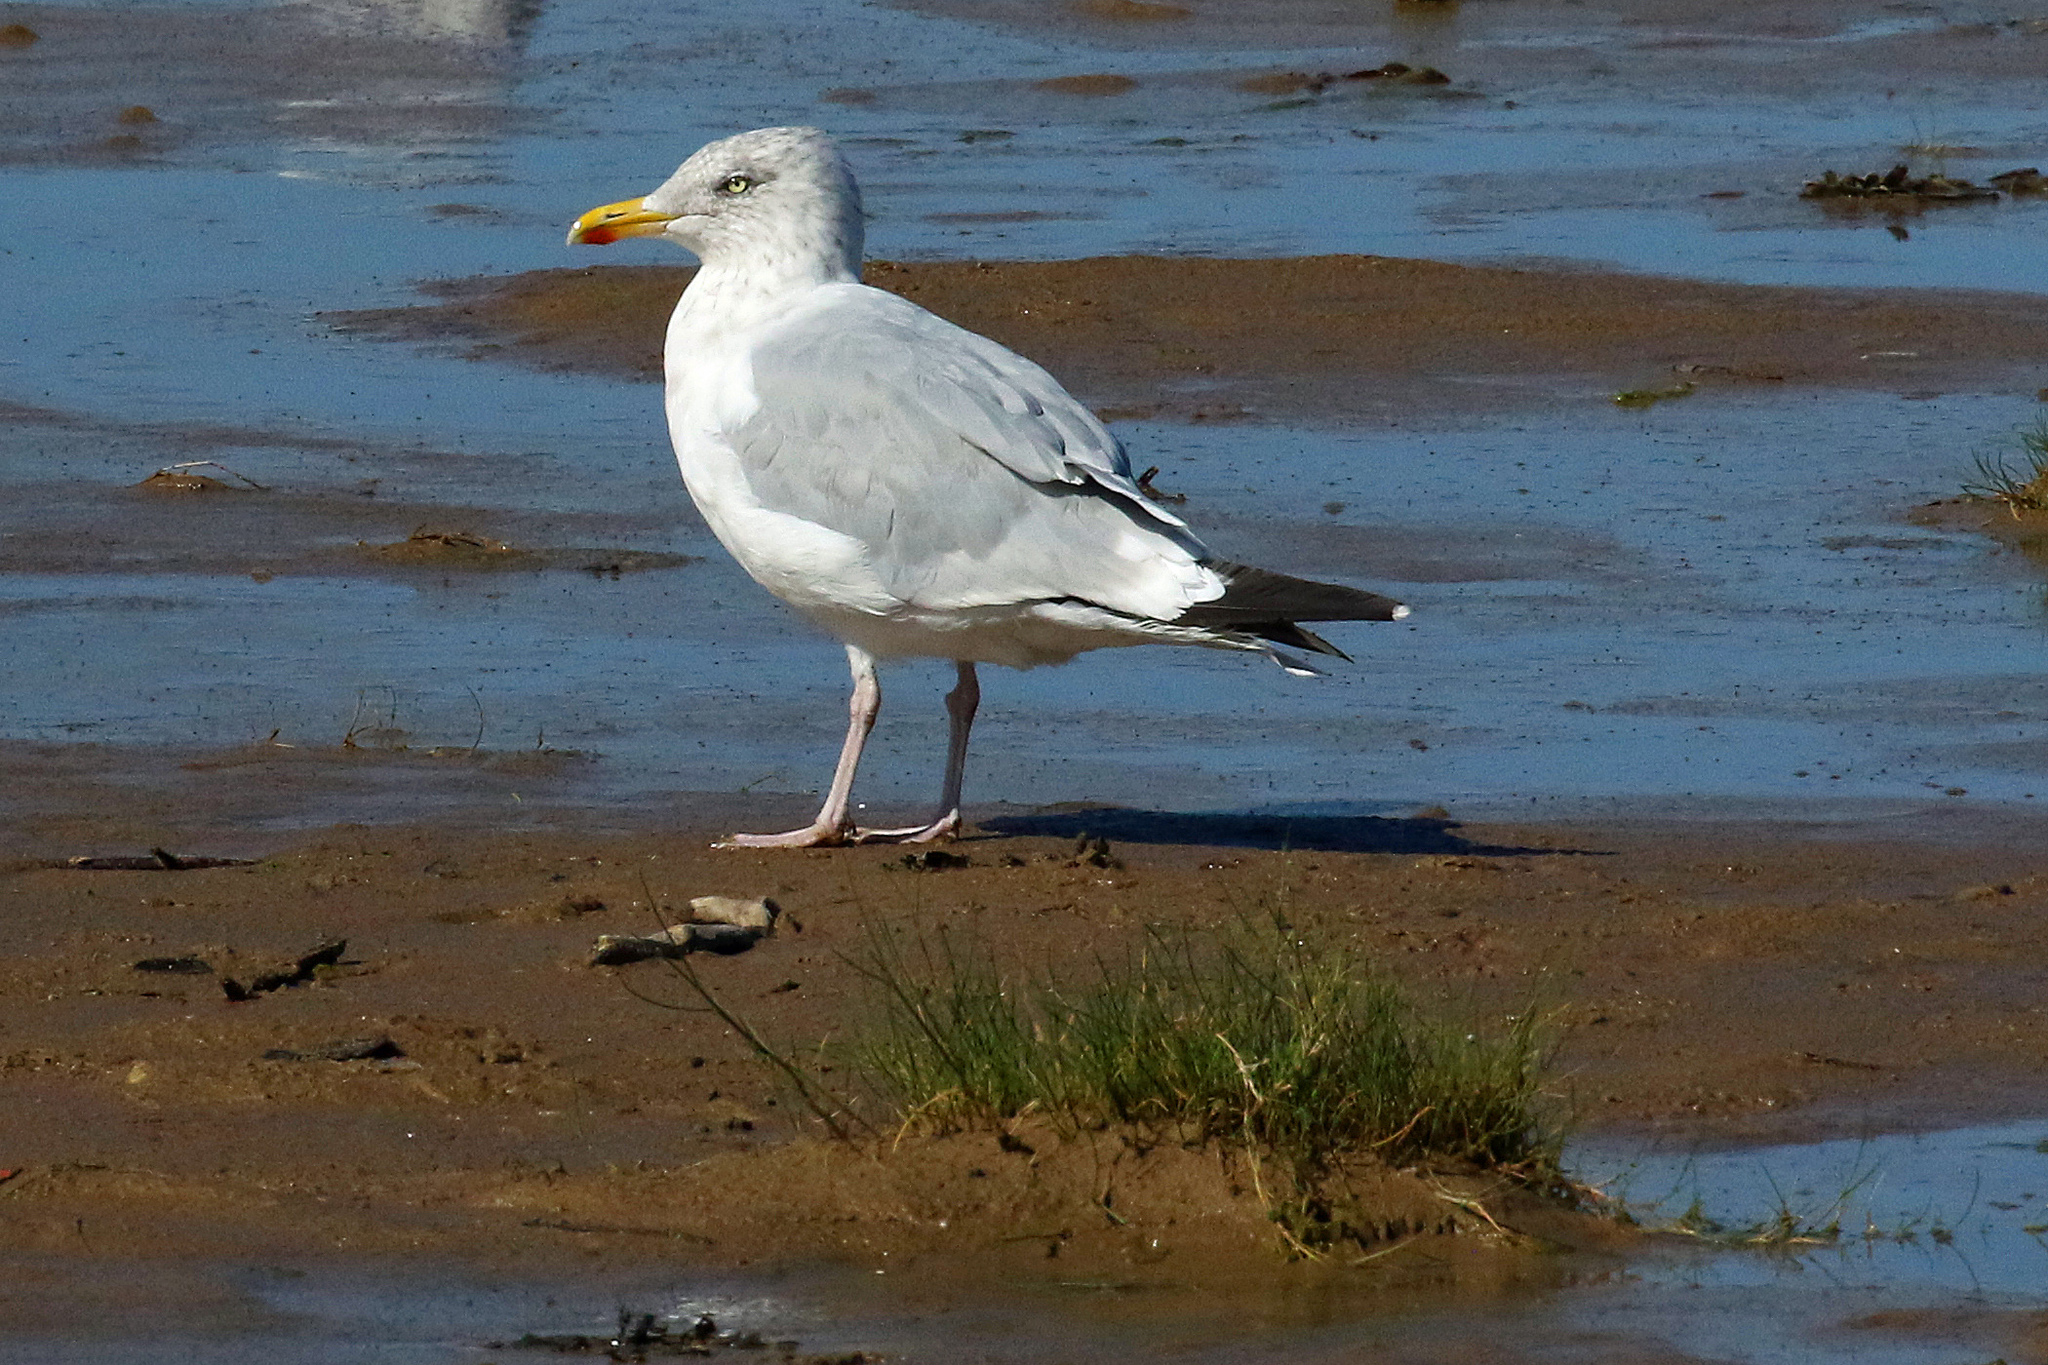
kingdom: Animalia
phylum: Chordata
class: Aves
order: Charadriiformes
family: Laridae
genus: Larus
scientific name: Larus argentatus
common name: Herring gull
